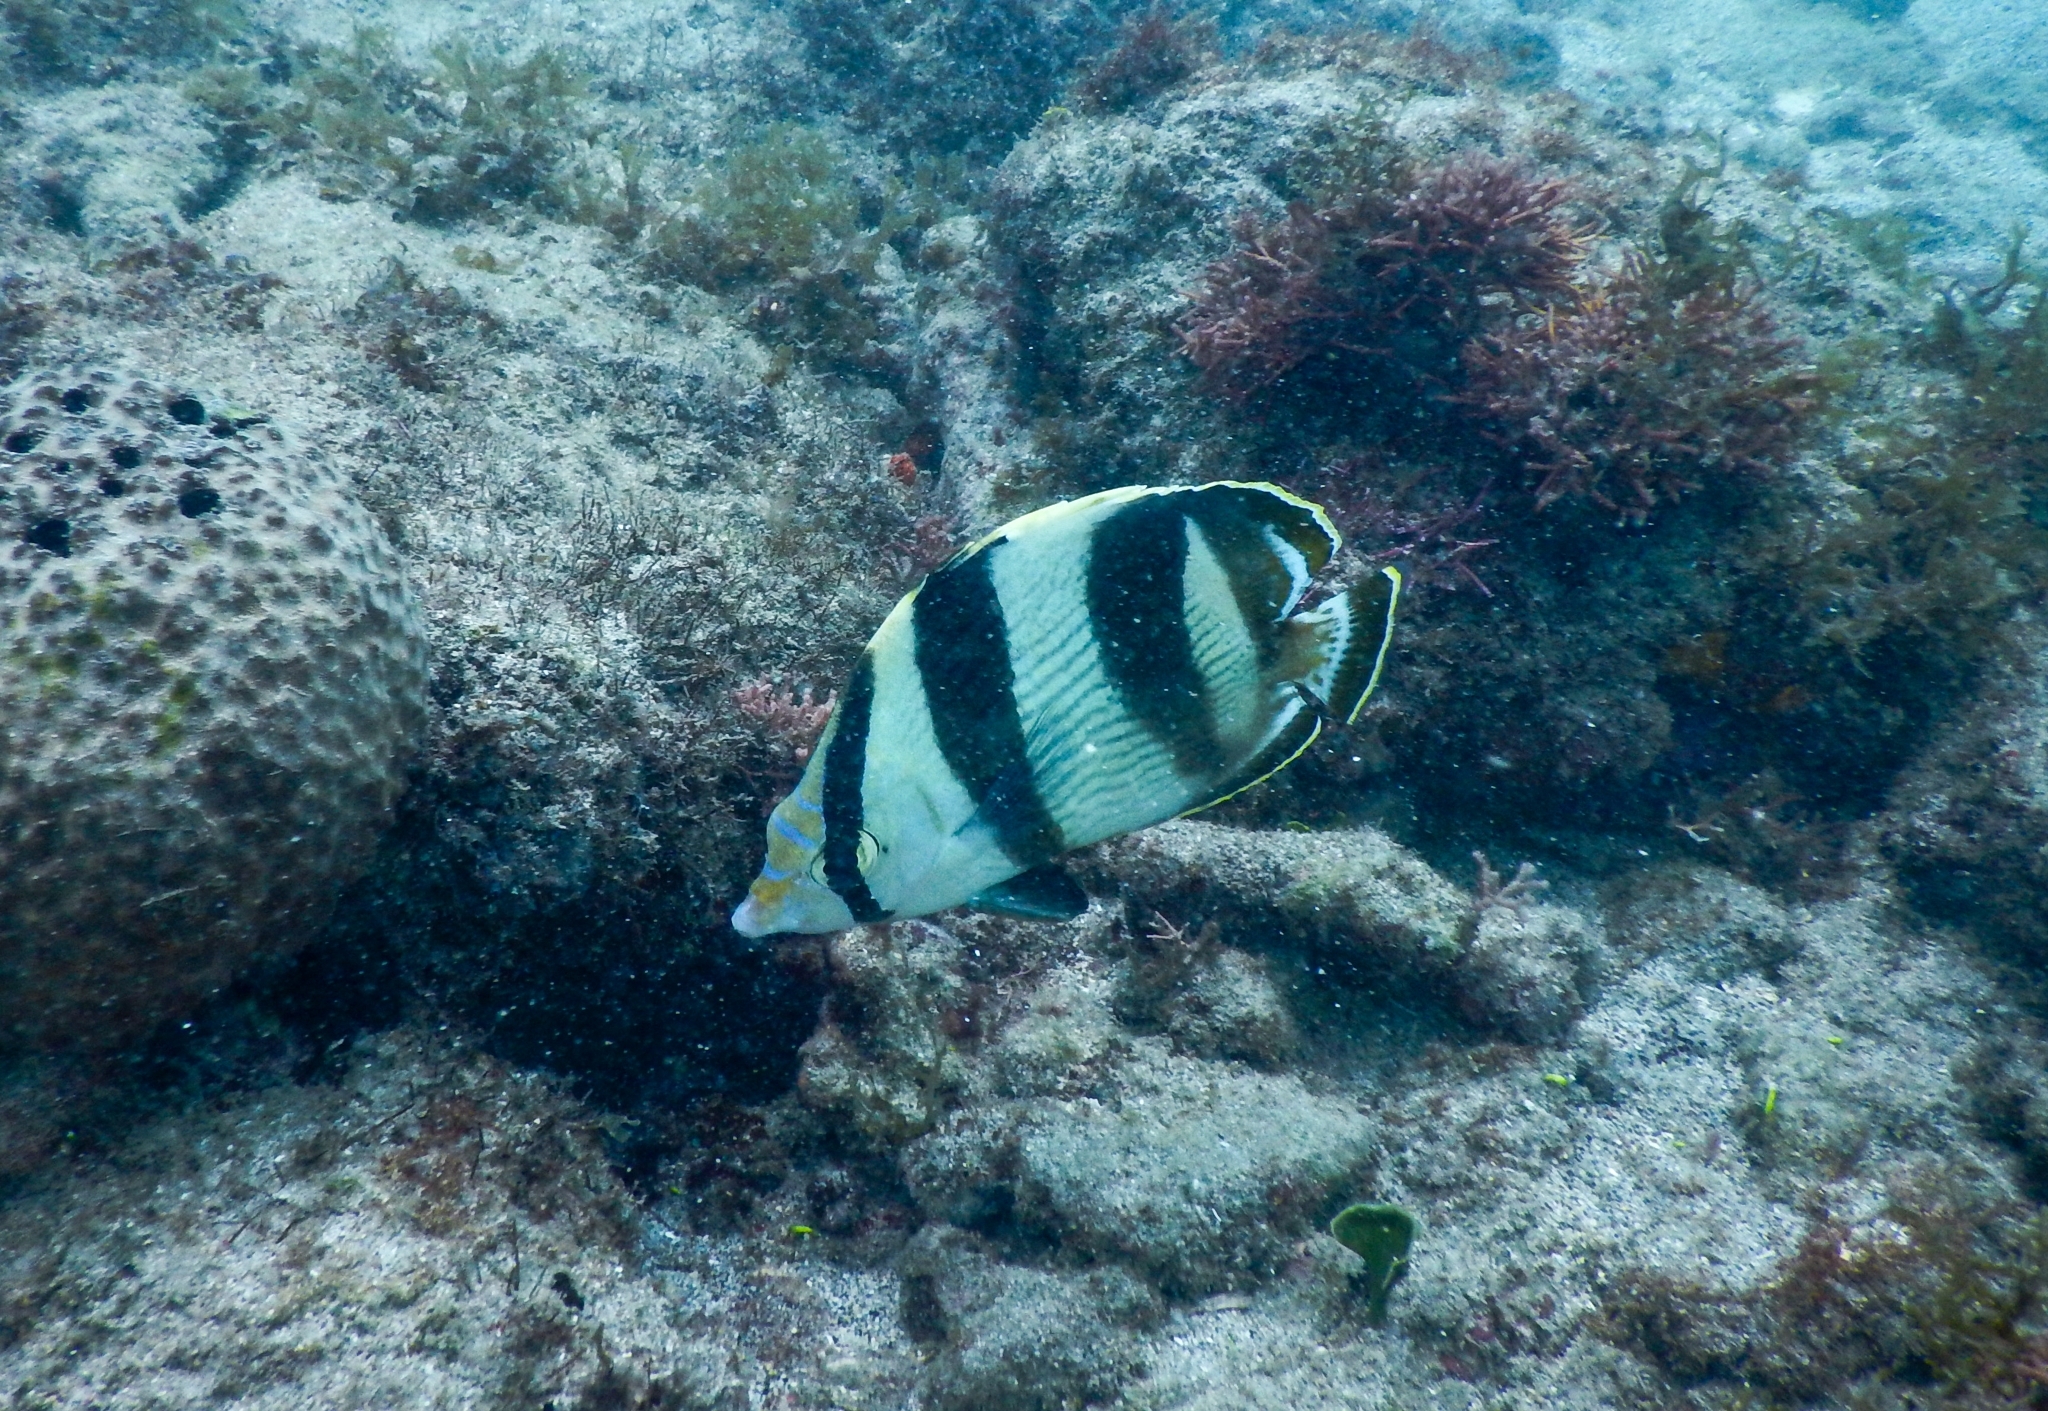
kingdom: Animalia
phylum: Chordata
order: Perciformes
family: Chaetodontidae
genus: Chaetodon
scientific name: Chaetodon striatus
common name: Banded butterflyfish
